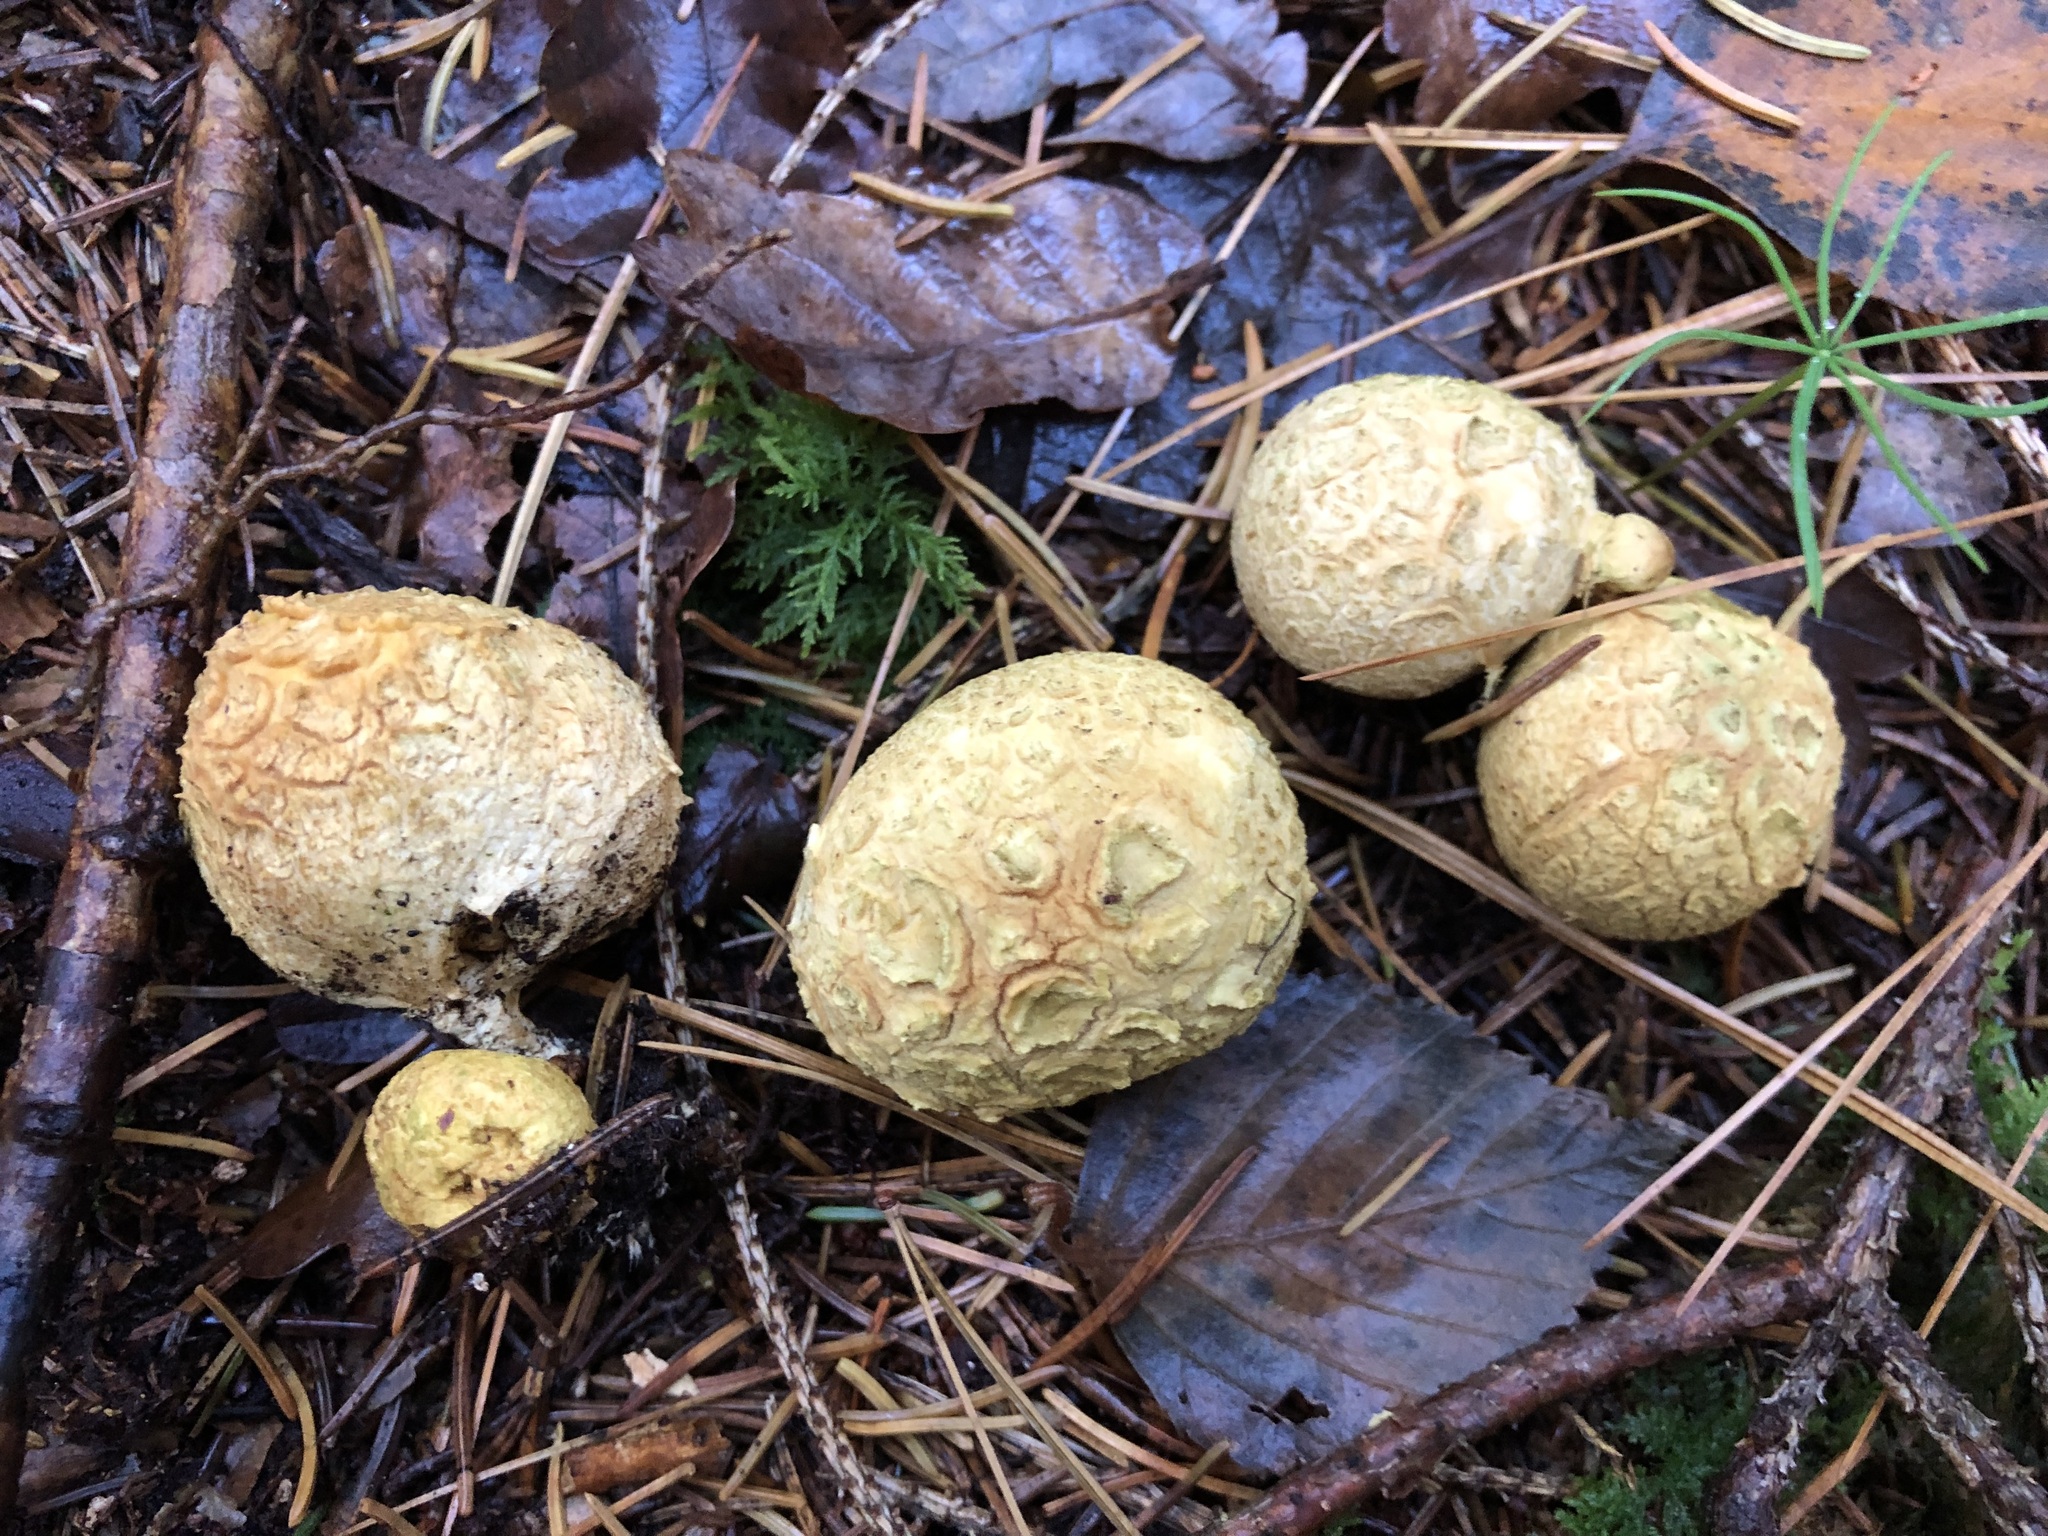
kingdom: Fungi
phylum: Basidiomycota
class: Agaricomycetes
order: Boletales
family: Sclerodermataceae
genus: Scleroderma
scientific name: Scleroderma citrinum
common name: Common earthball
